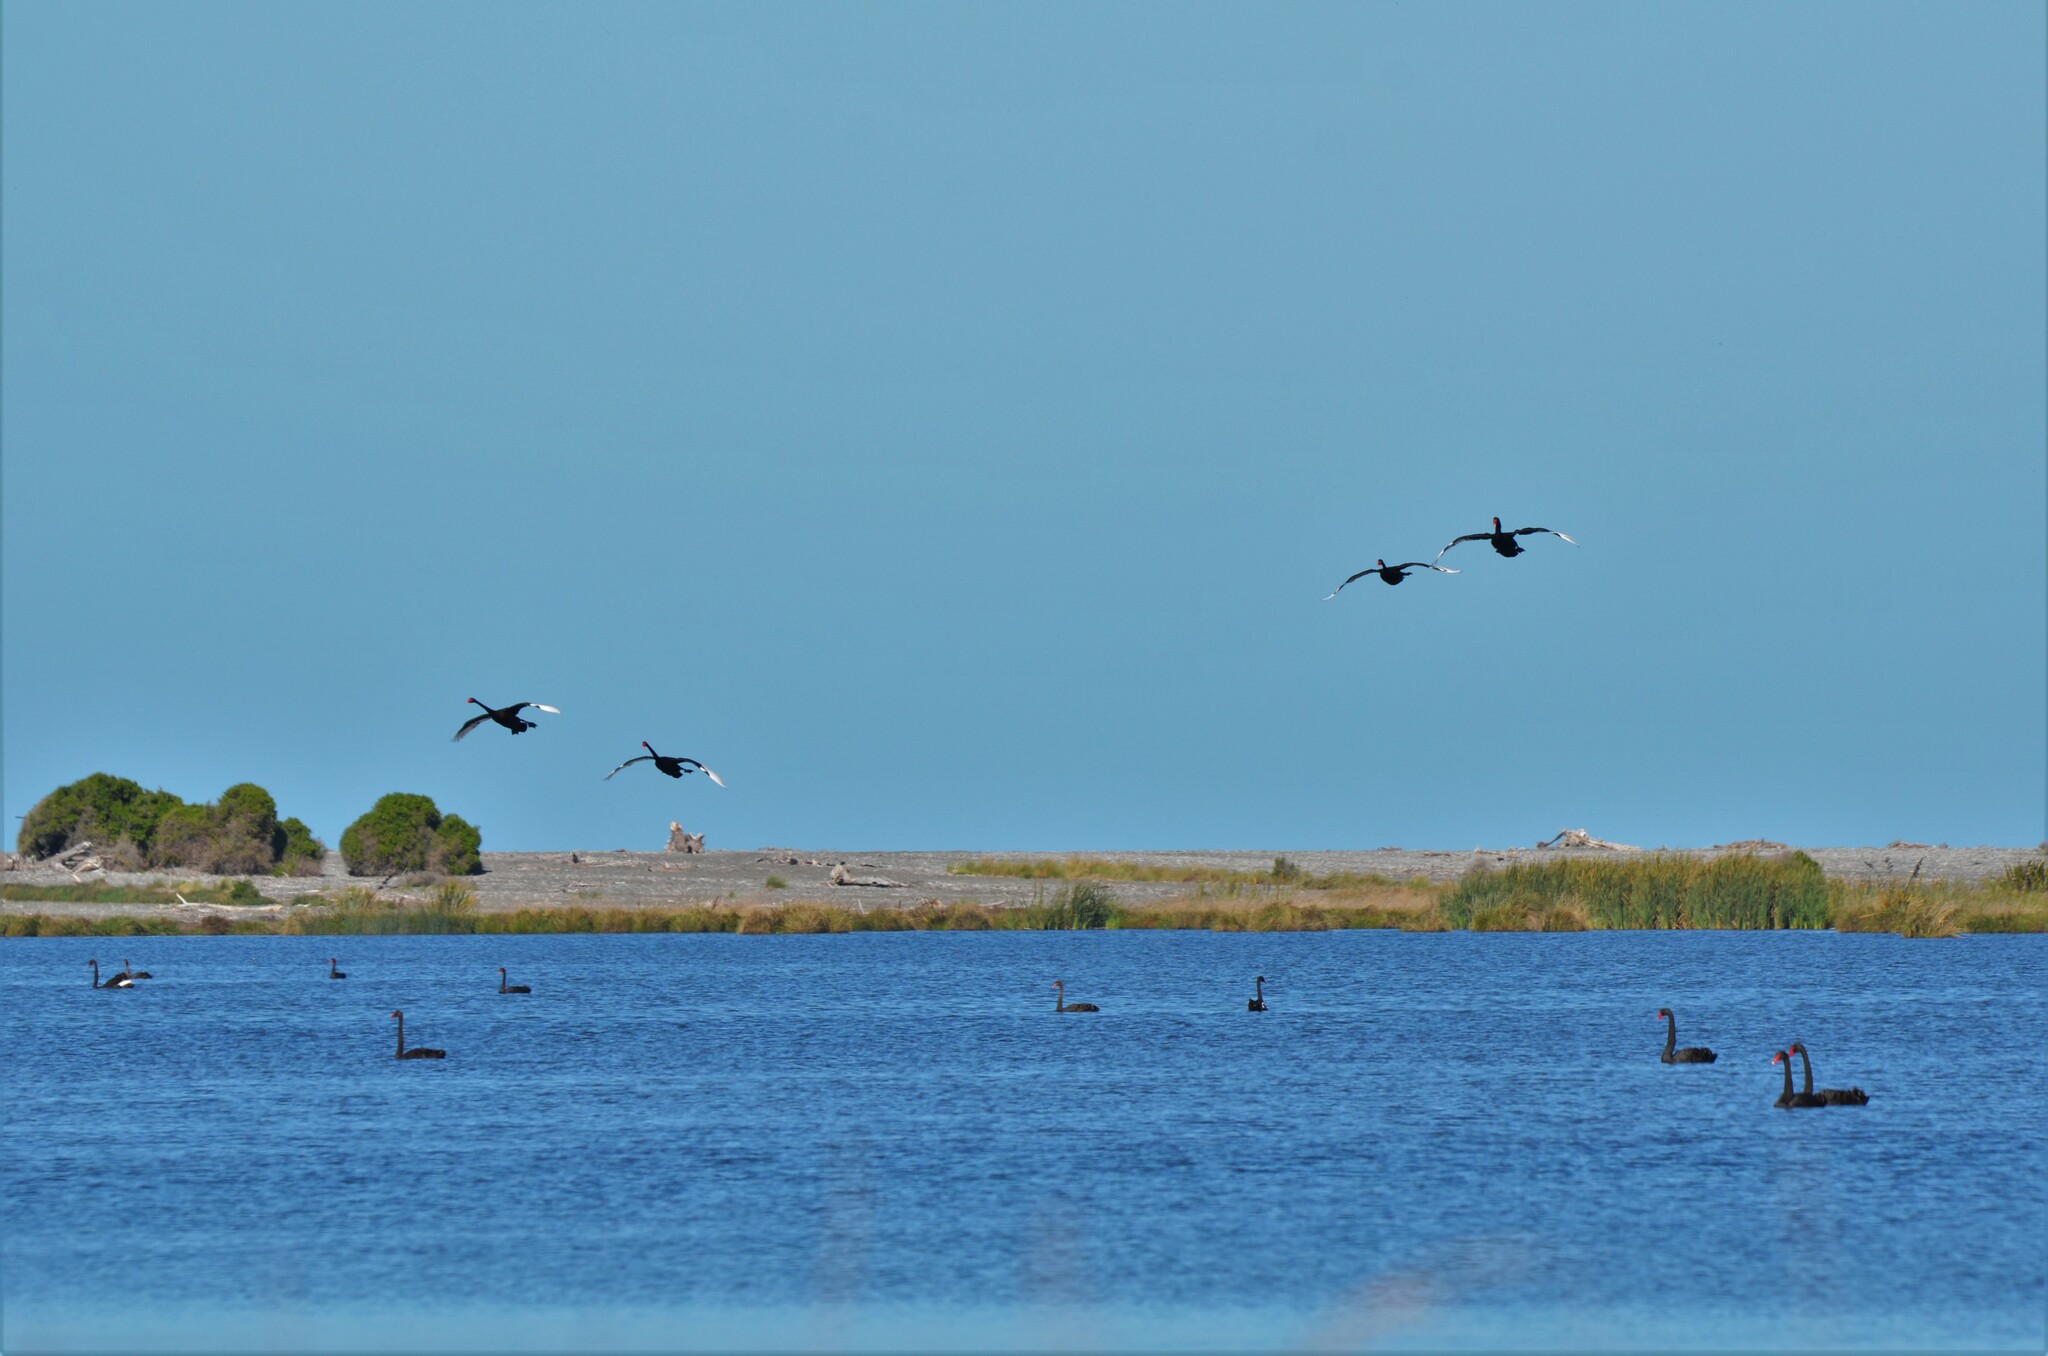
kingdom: Animalia
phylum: Chordata
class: Aves
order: Anseriformes
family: Anatidae
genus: Cygnus
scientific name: Cygnus atratus
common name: Black swan
